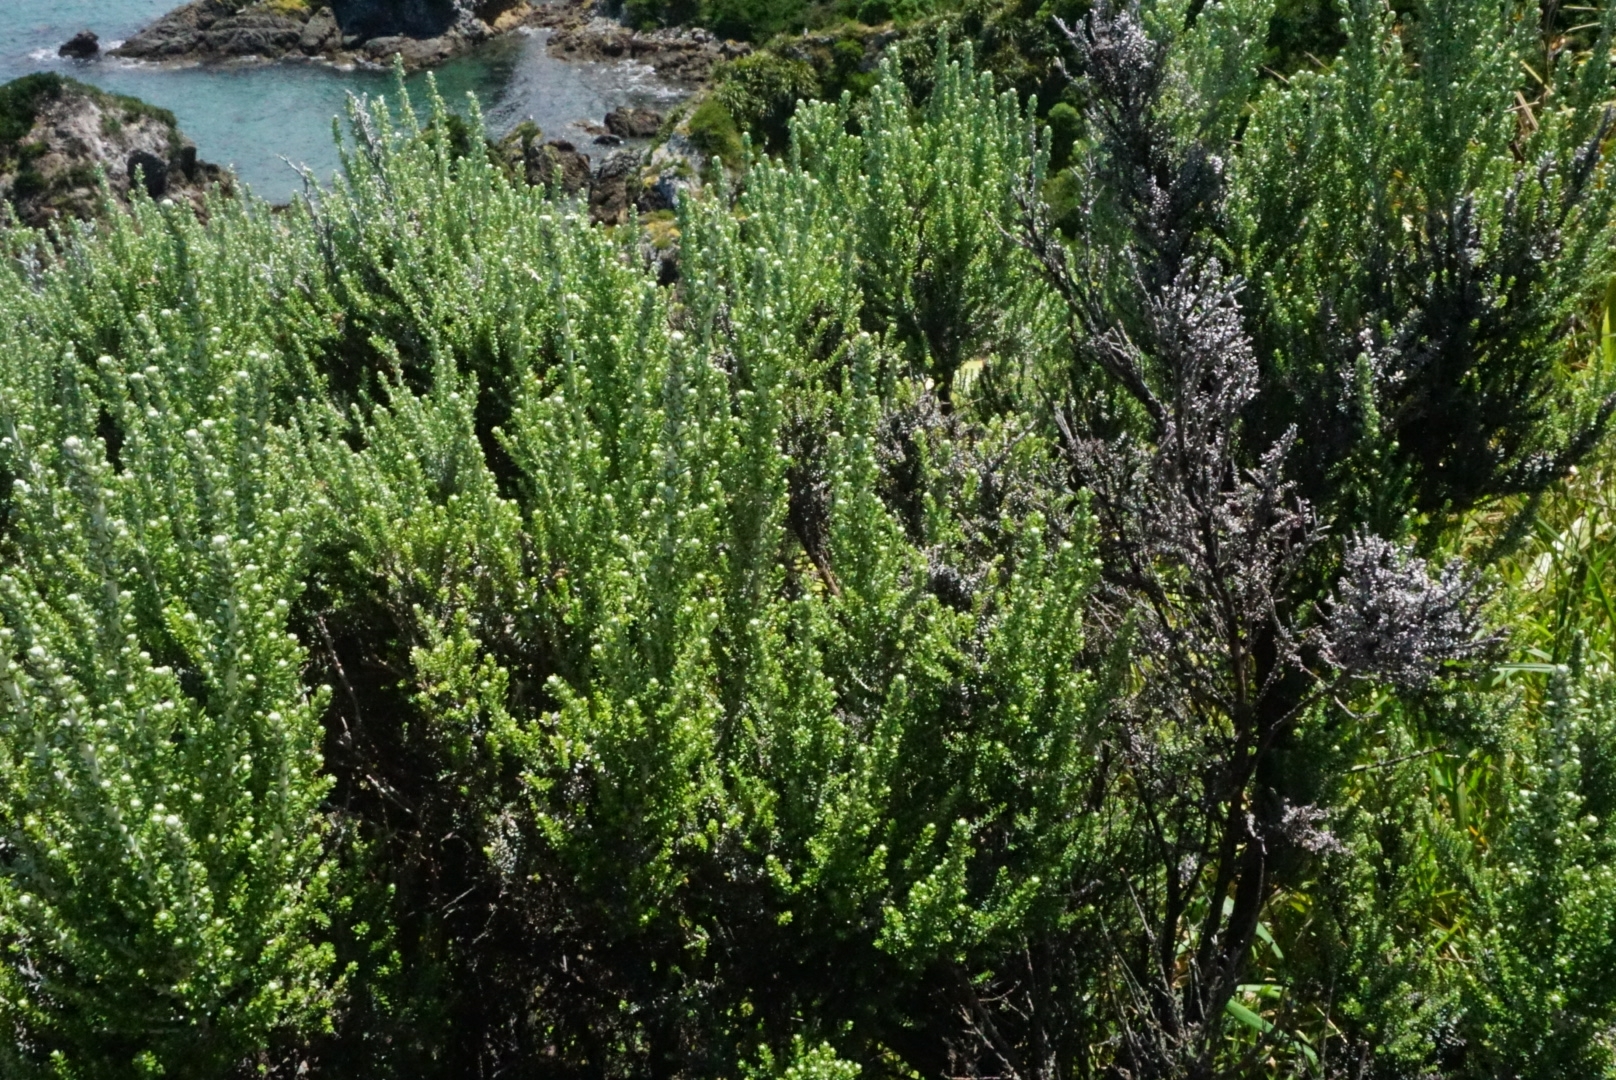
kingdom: Plantae
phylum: Tracheophyta
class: Magnoliopsida
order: Asterales
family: Asteraceae
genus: Ozothamnus
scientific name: Ozothamnus leptophyllus
